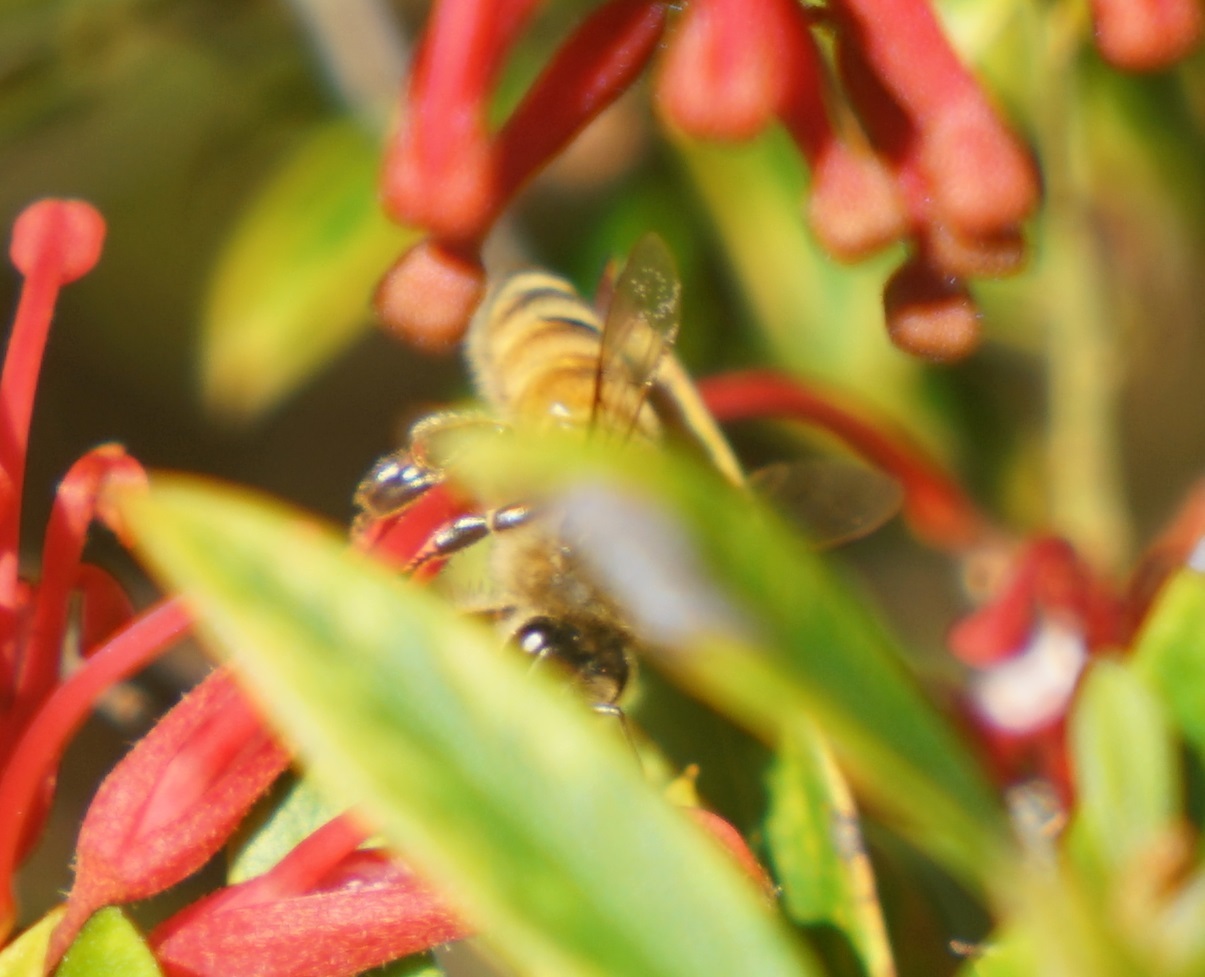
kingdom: Animalia
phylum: Arthropoda
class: Insecta
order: Hymenoptera
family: Apidae
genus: Apis
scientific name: Apis mellifera
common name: Honey bee
